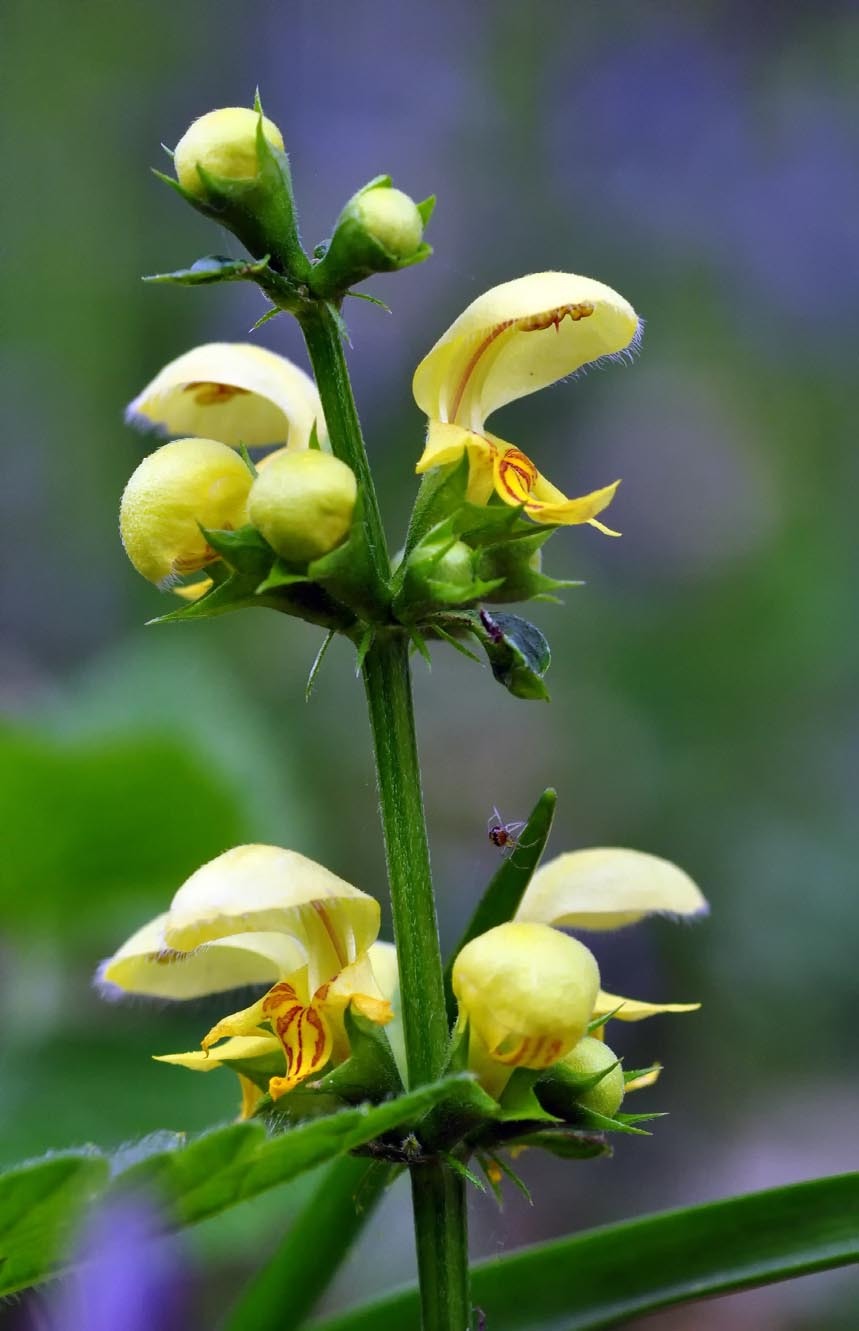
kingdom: Plantae
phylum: Tracheophyta
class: Magnoliopsida
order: Lamiales
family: Lamiaceae
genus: Lamium
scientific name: Lamium galeobdolon
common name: Yellow archangel
